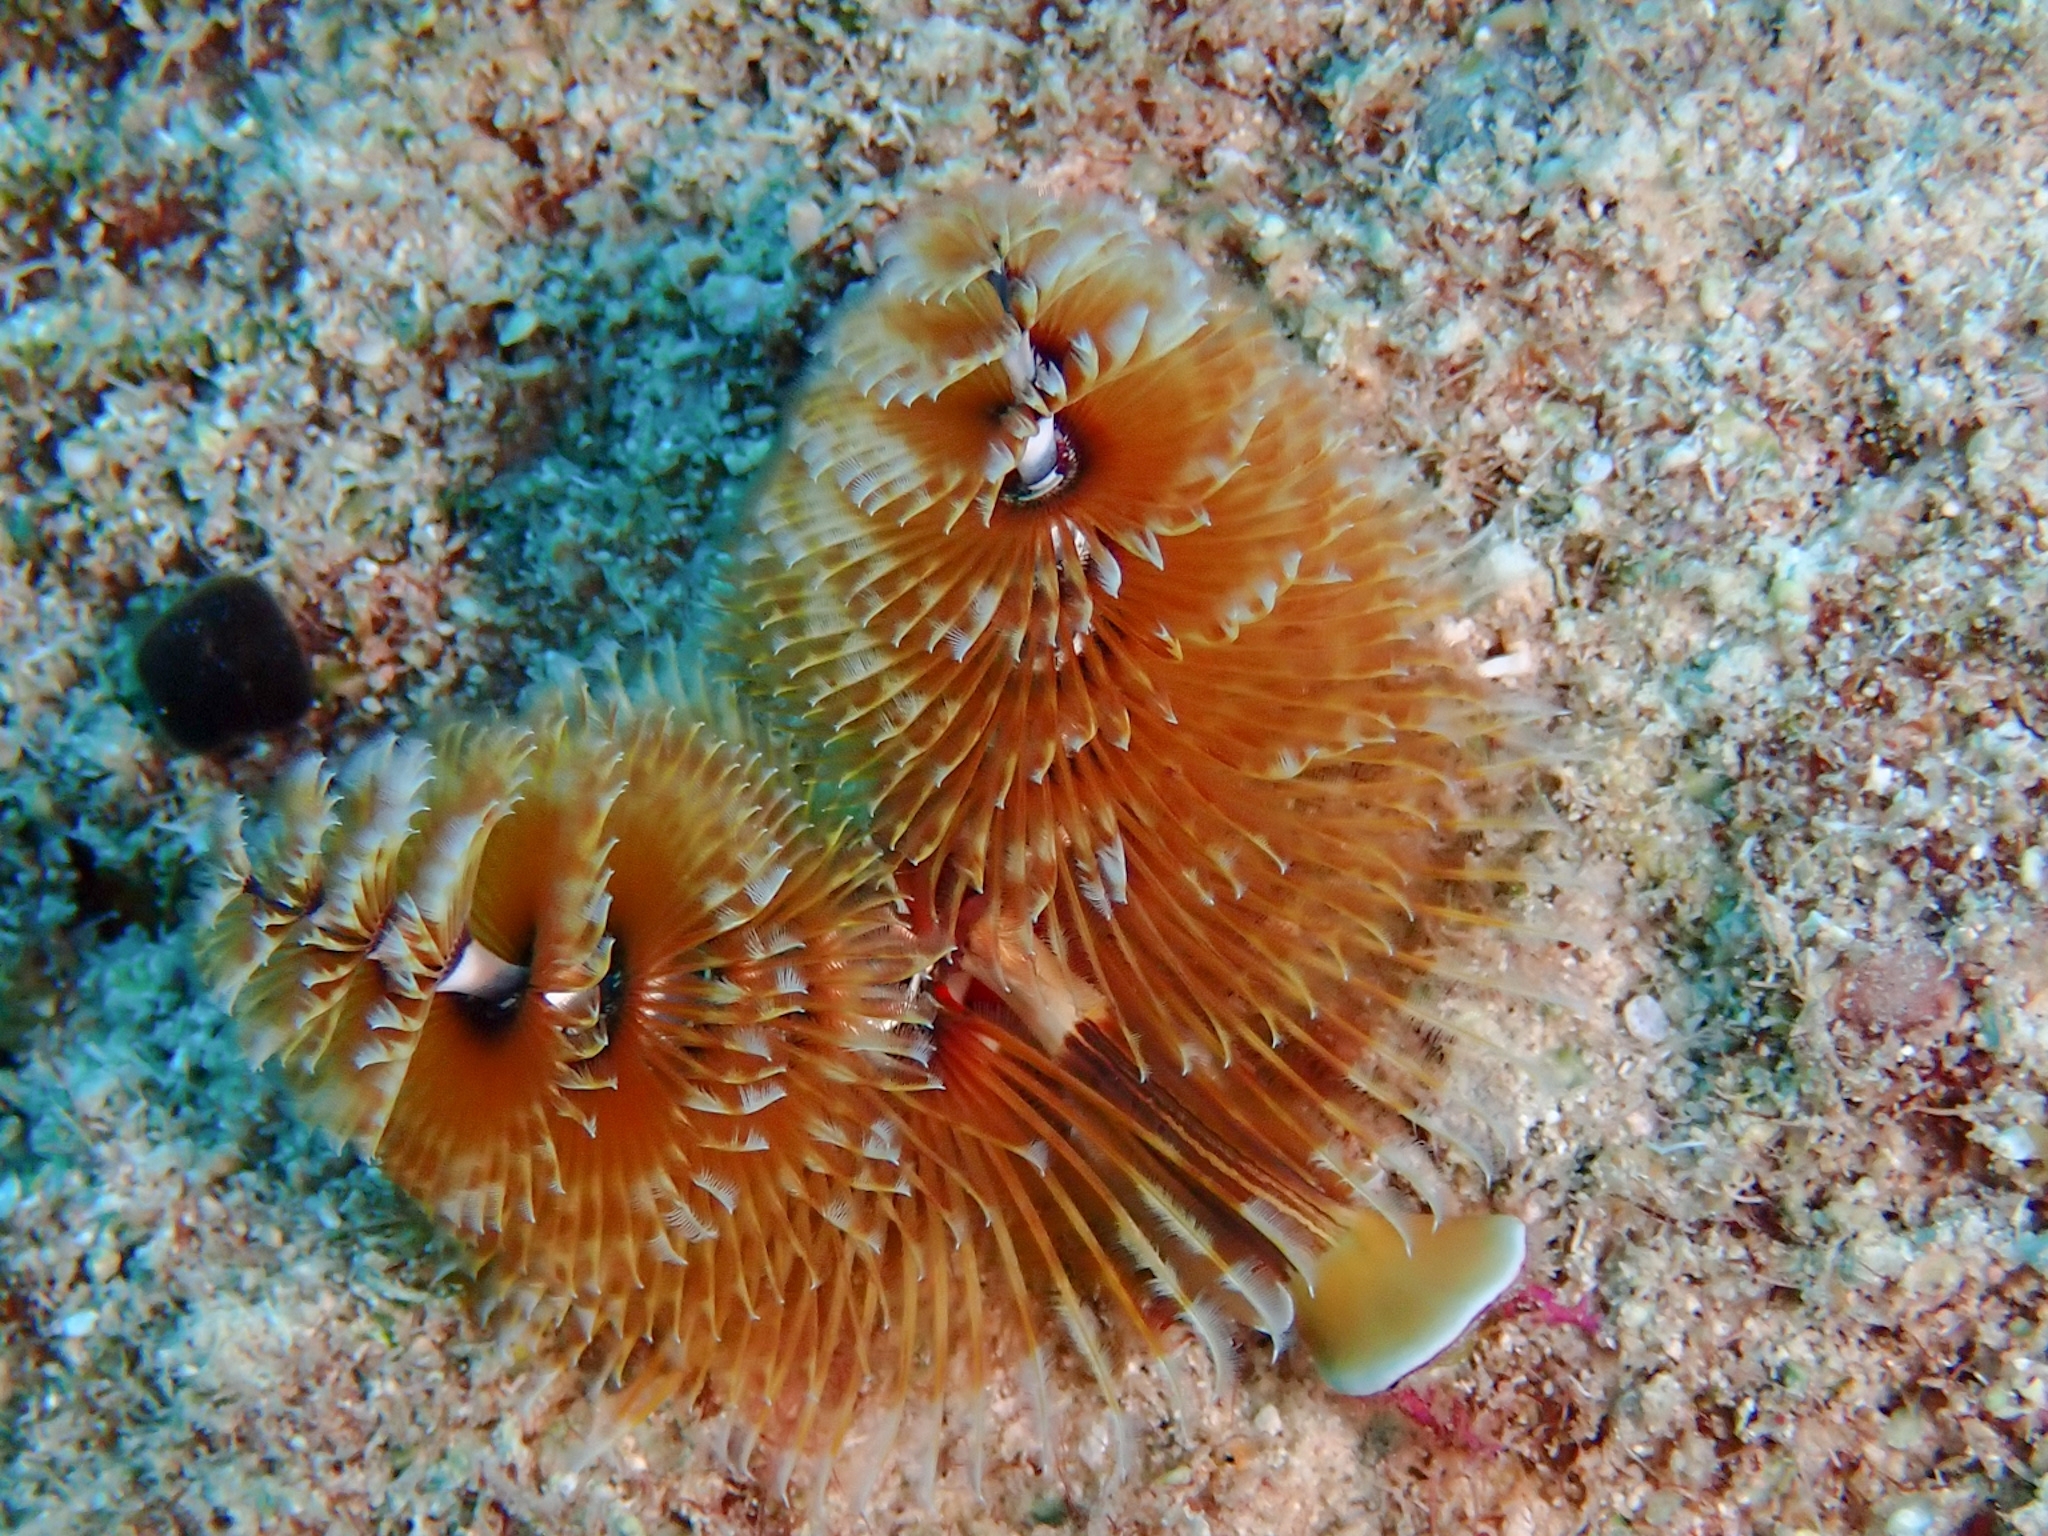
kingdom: Animalia
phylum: Annelida
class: Polychaeta
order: Sabellida
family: Serpulidae
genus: Spirobranchus
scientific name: Spirobranchus giganteus
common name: Christmas tree worm
